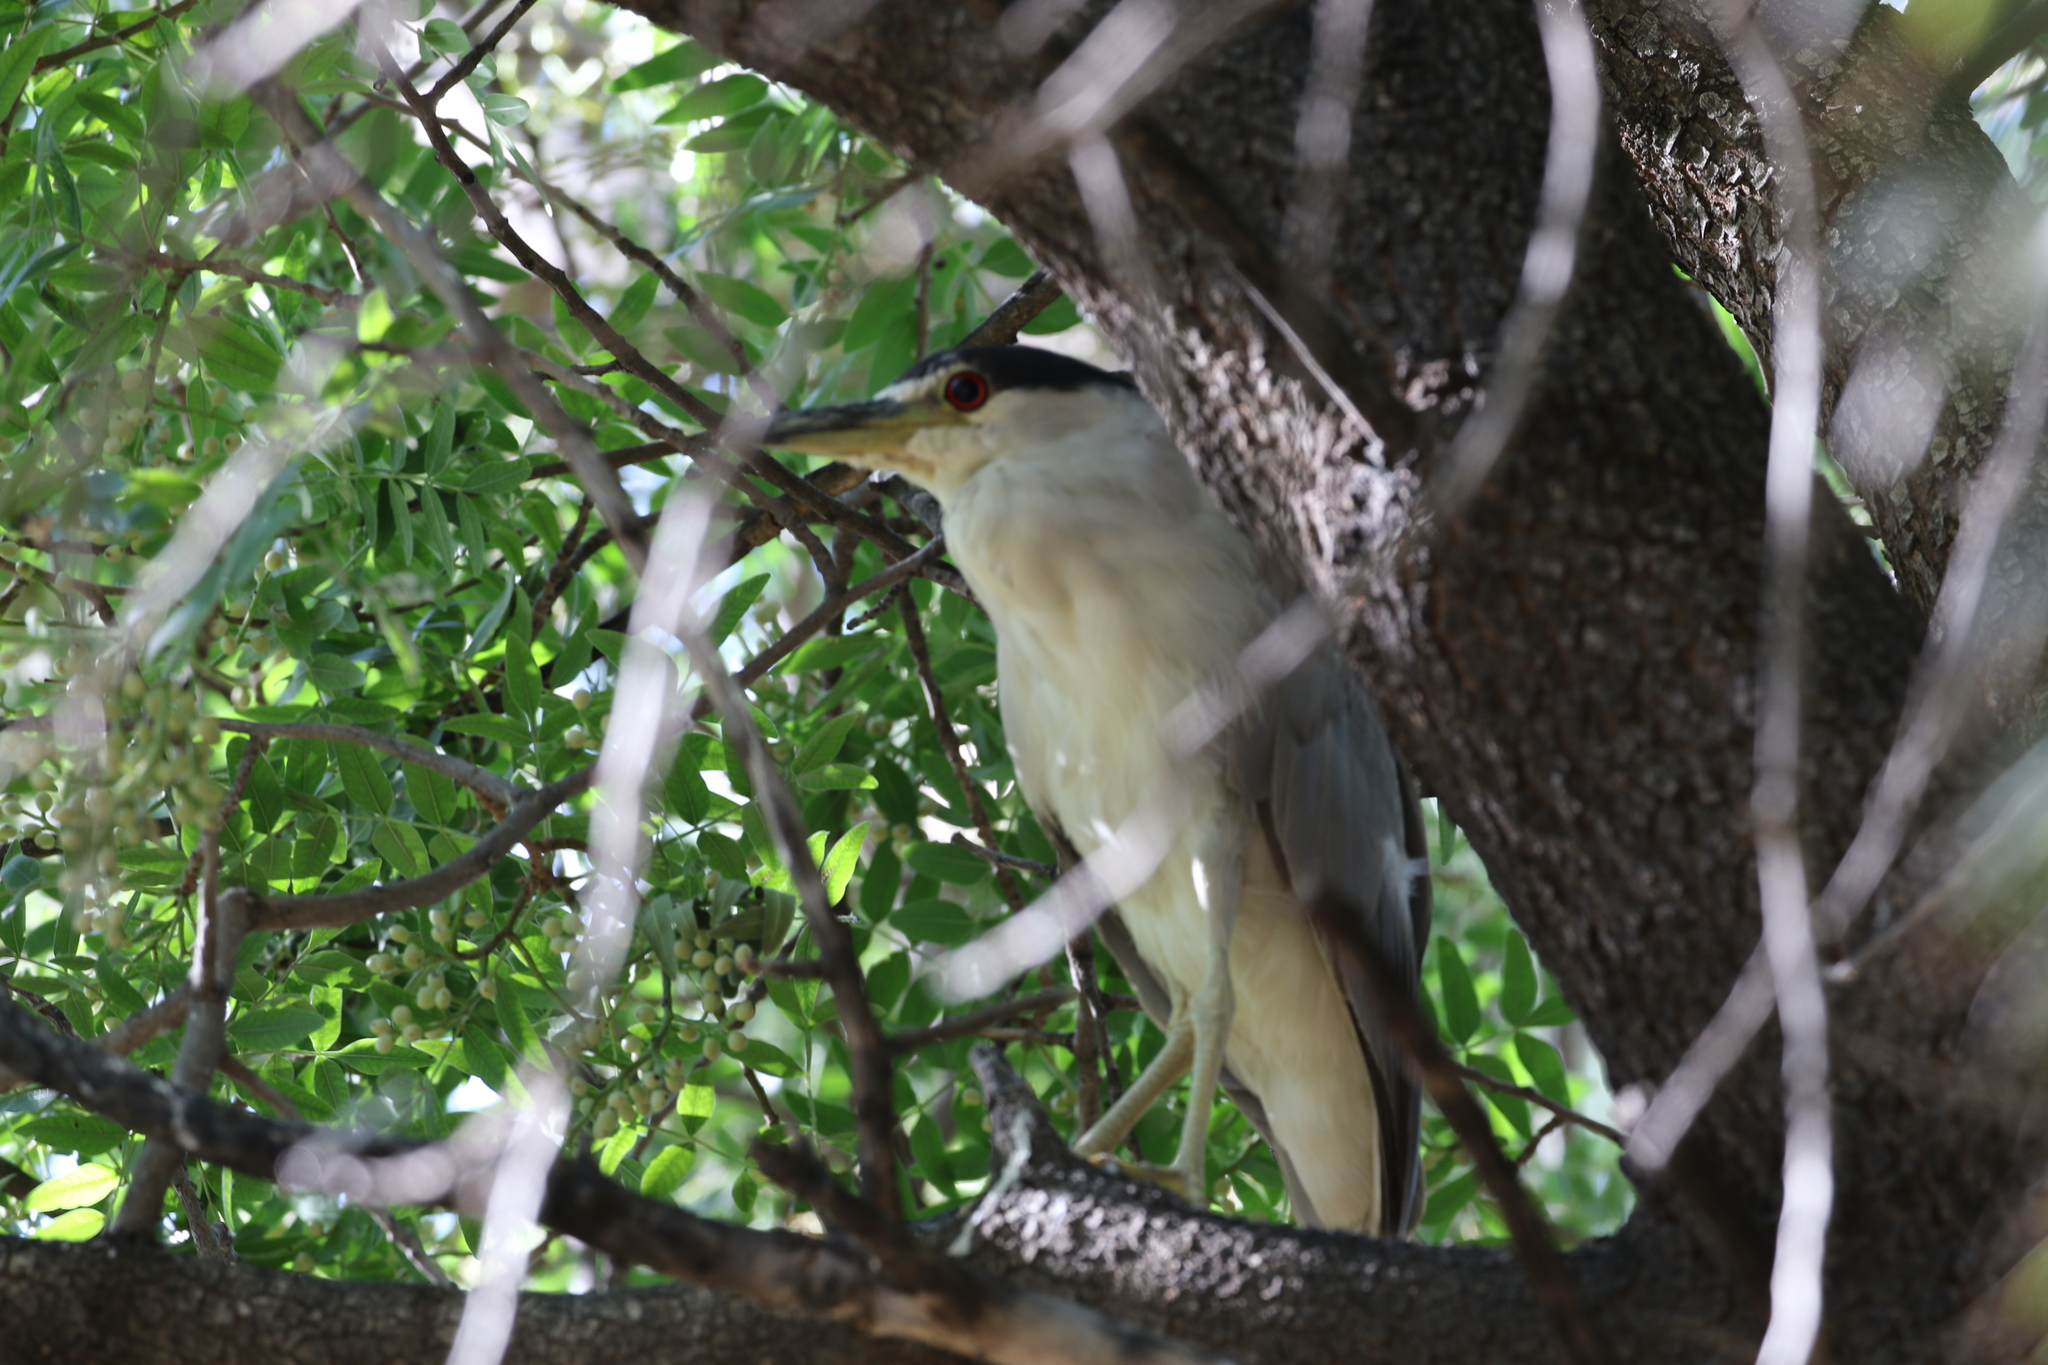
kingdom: Animalia
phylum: Chordata
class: Aves
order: Pelecaniformes
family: Ardeidae
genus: Nycticorax
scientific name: Nycticorax nycticorax
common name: Black-crowned night heron
